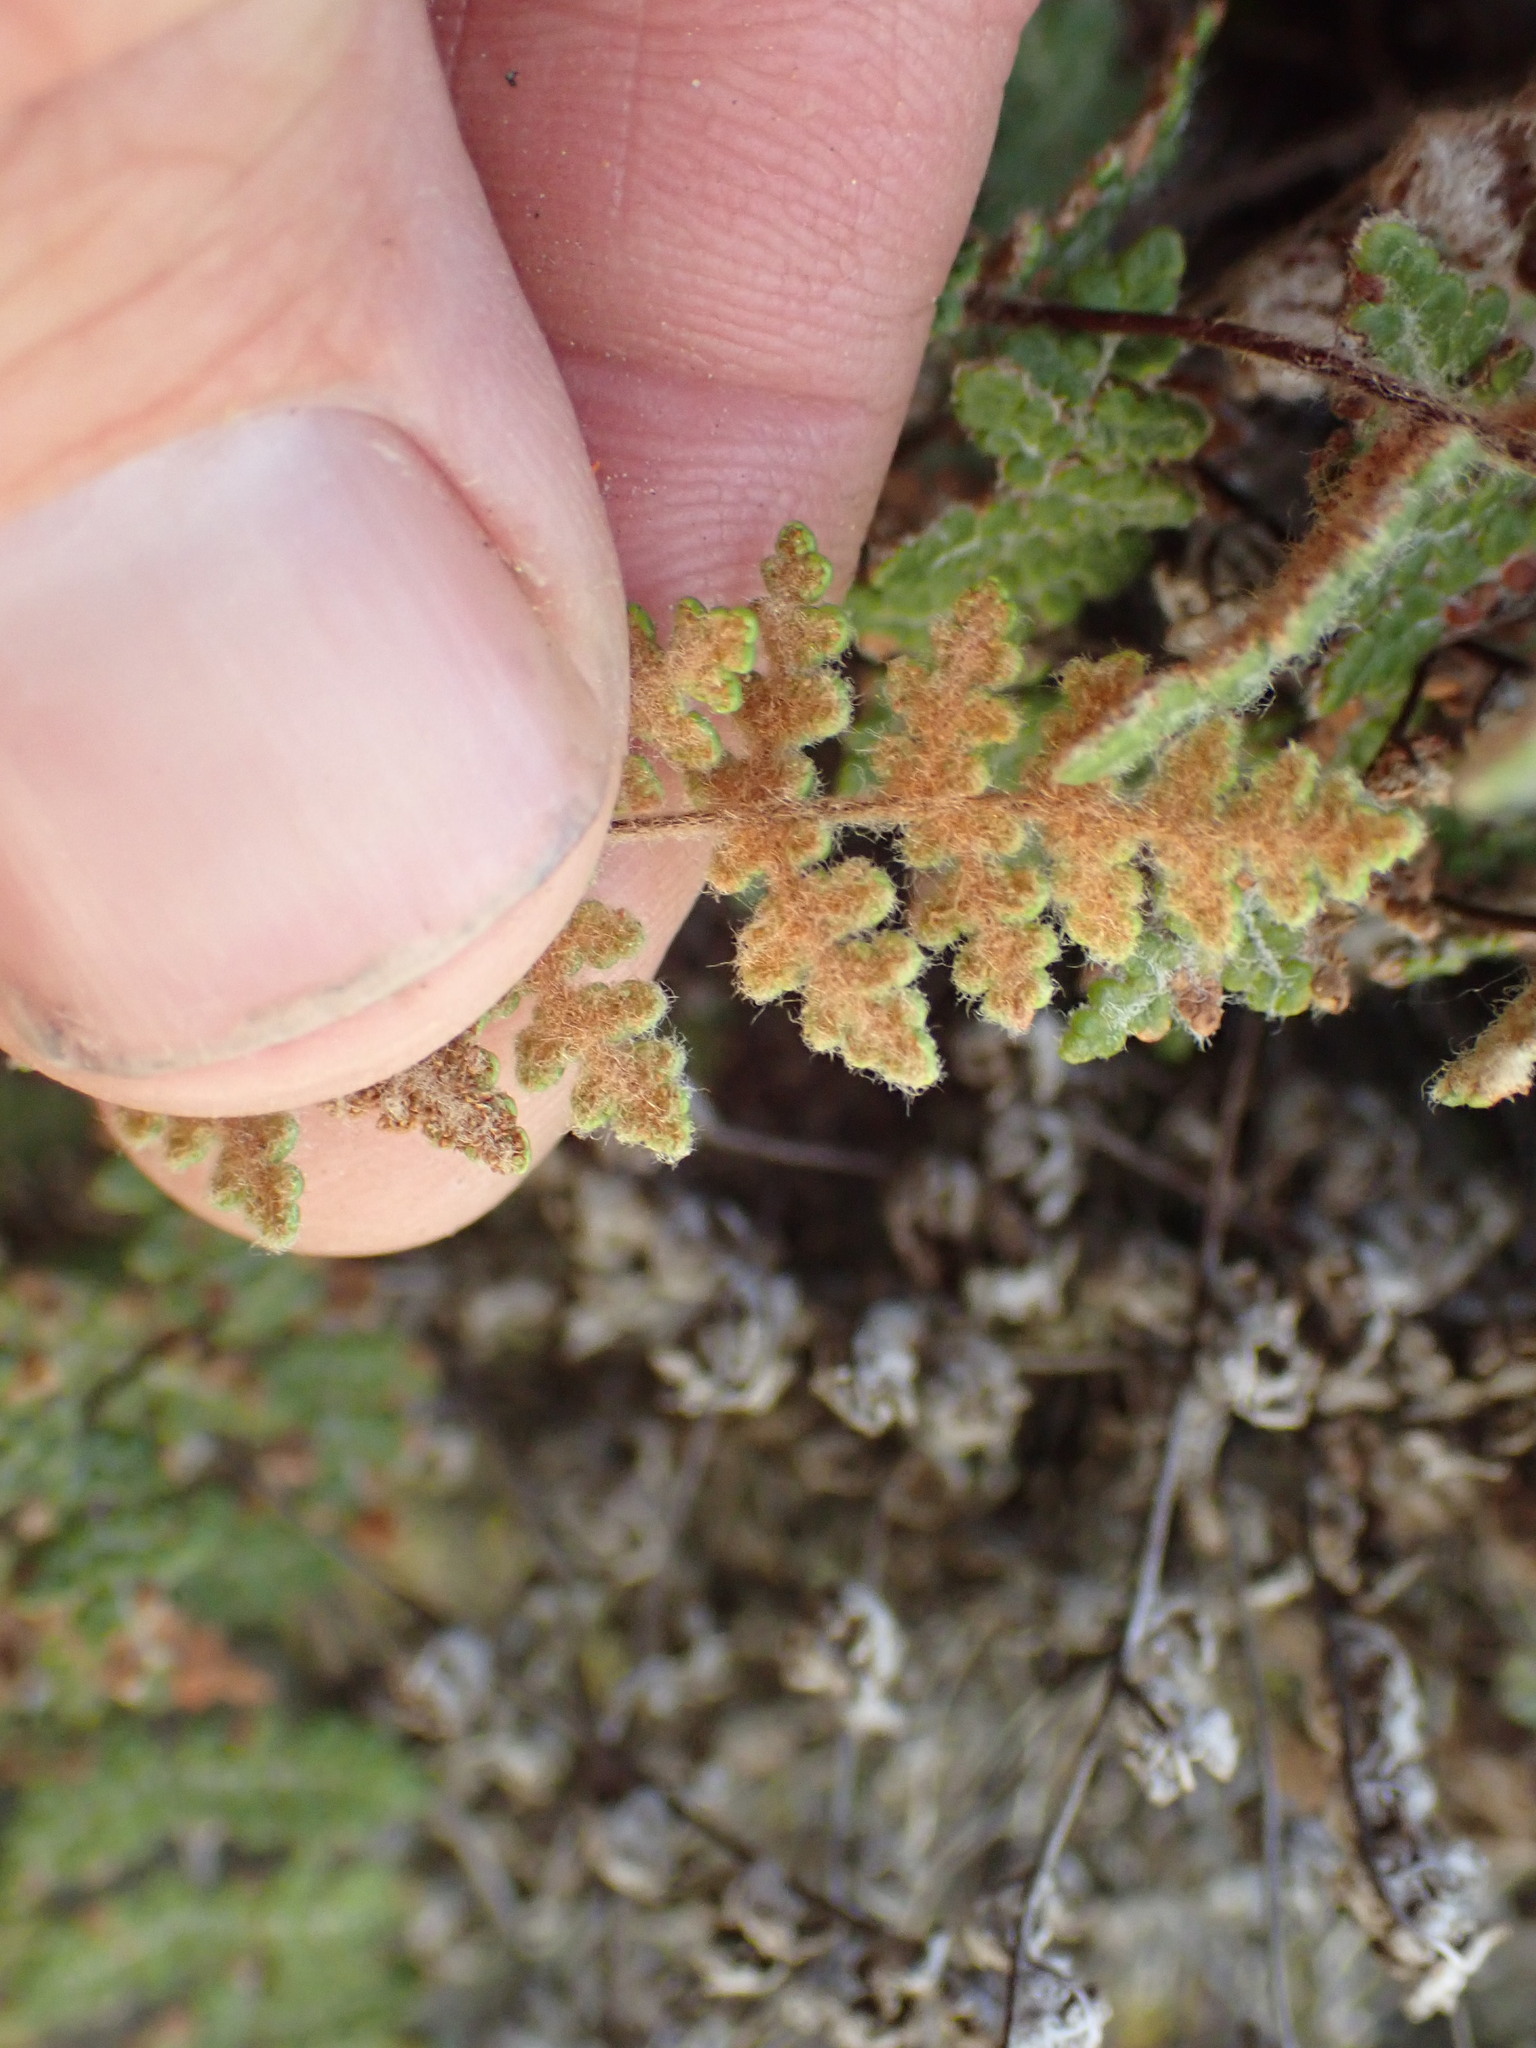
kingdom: Plantae
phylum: Tracheophyta
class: Polypodiopsida
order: Polypodiales
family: Pteridaceae
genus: Myriopteris
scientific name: Myriopteris gracilis
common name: Fee's lip fern
